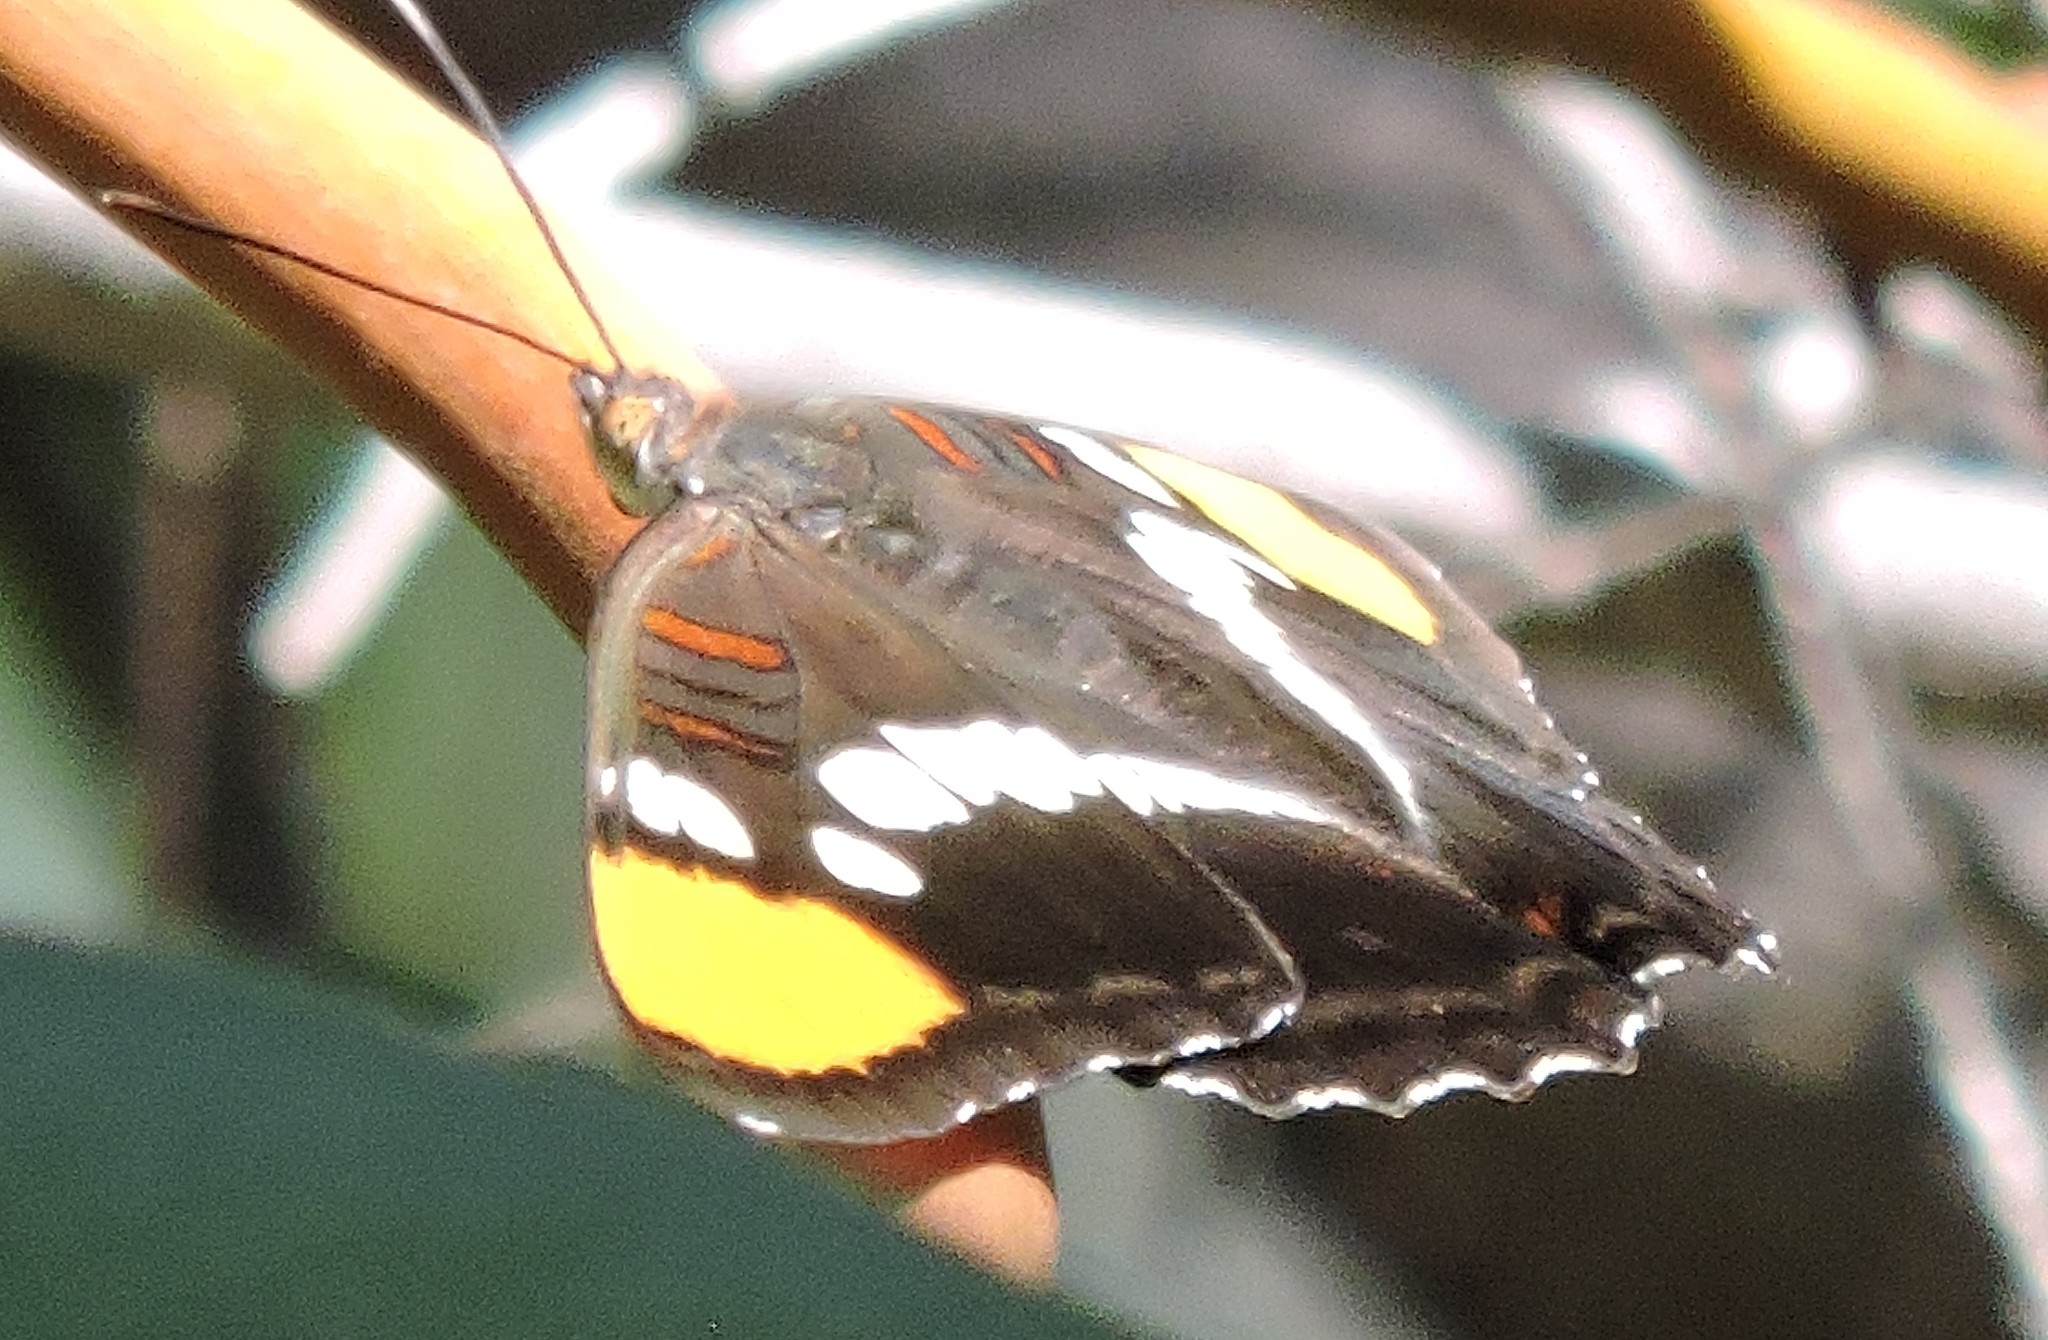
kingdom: Animalia
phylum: Arthropoda
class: Insecta
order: Lepidoptera
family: Nymphalidae
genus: Limenitis
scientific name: Limenitis bredowii
